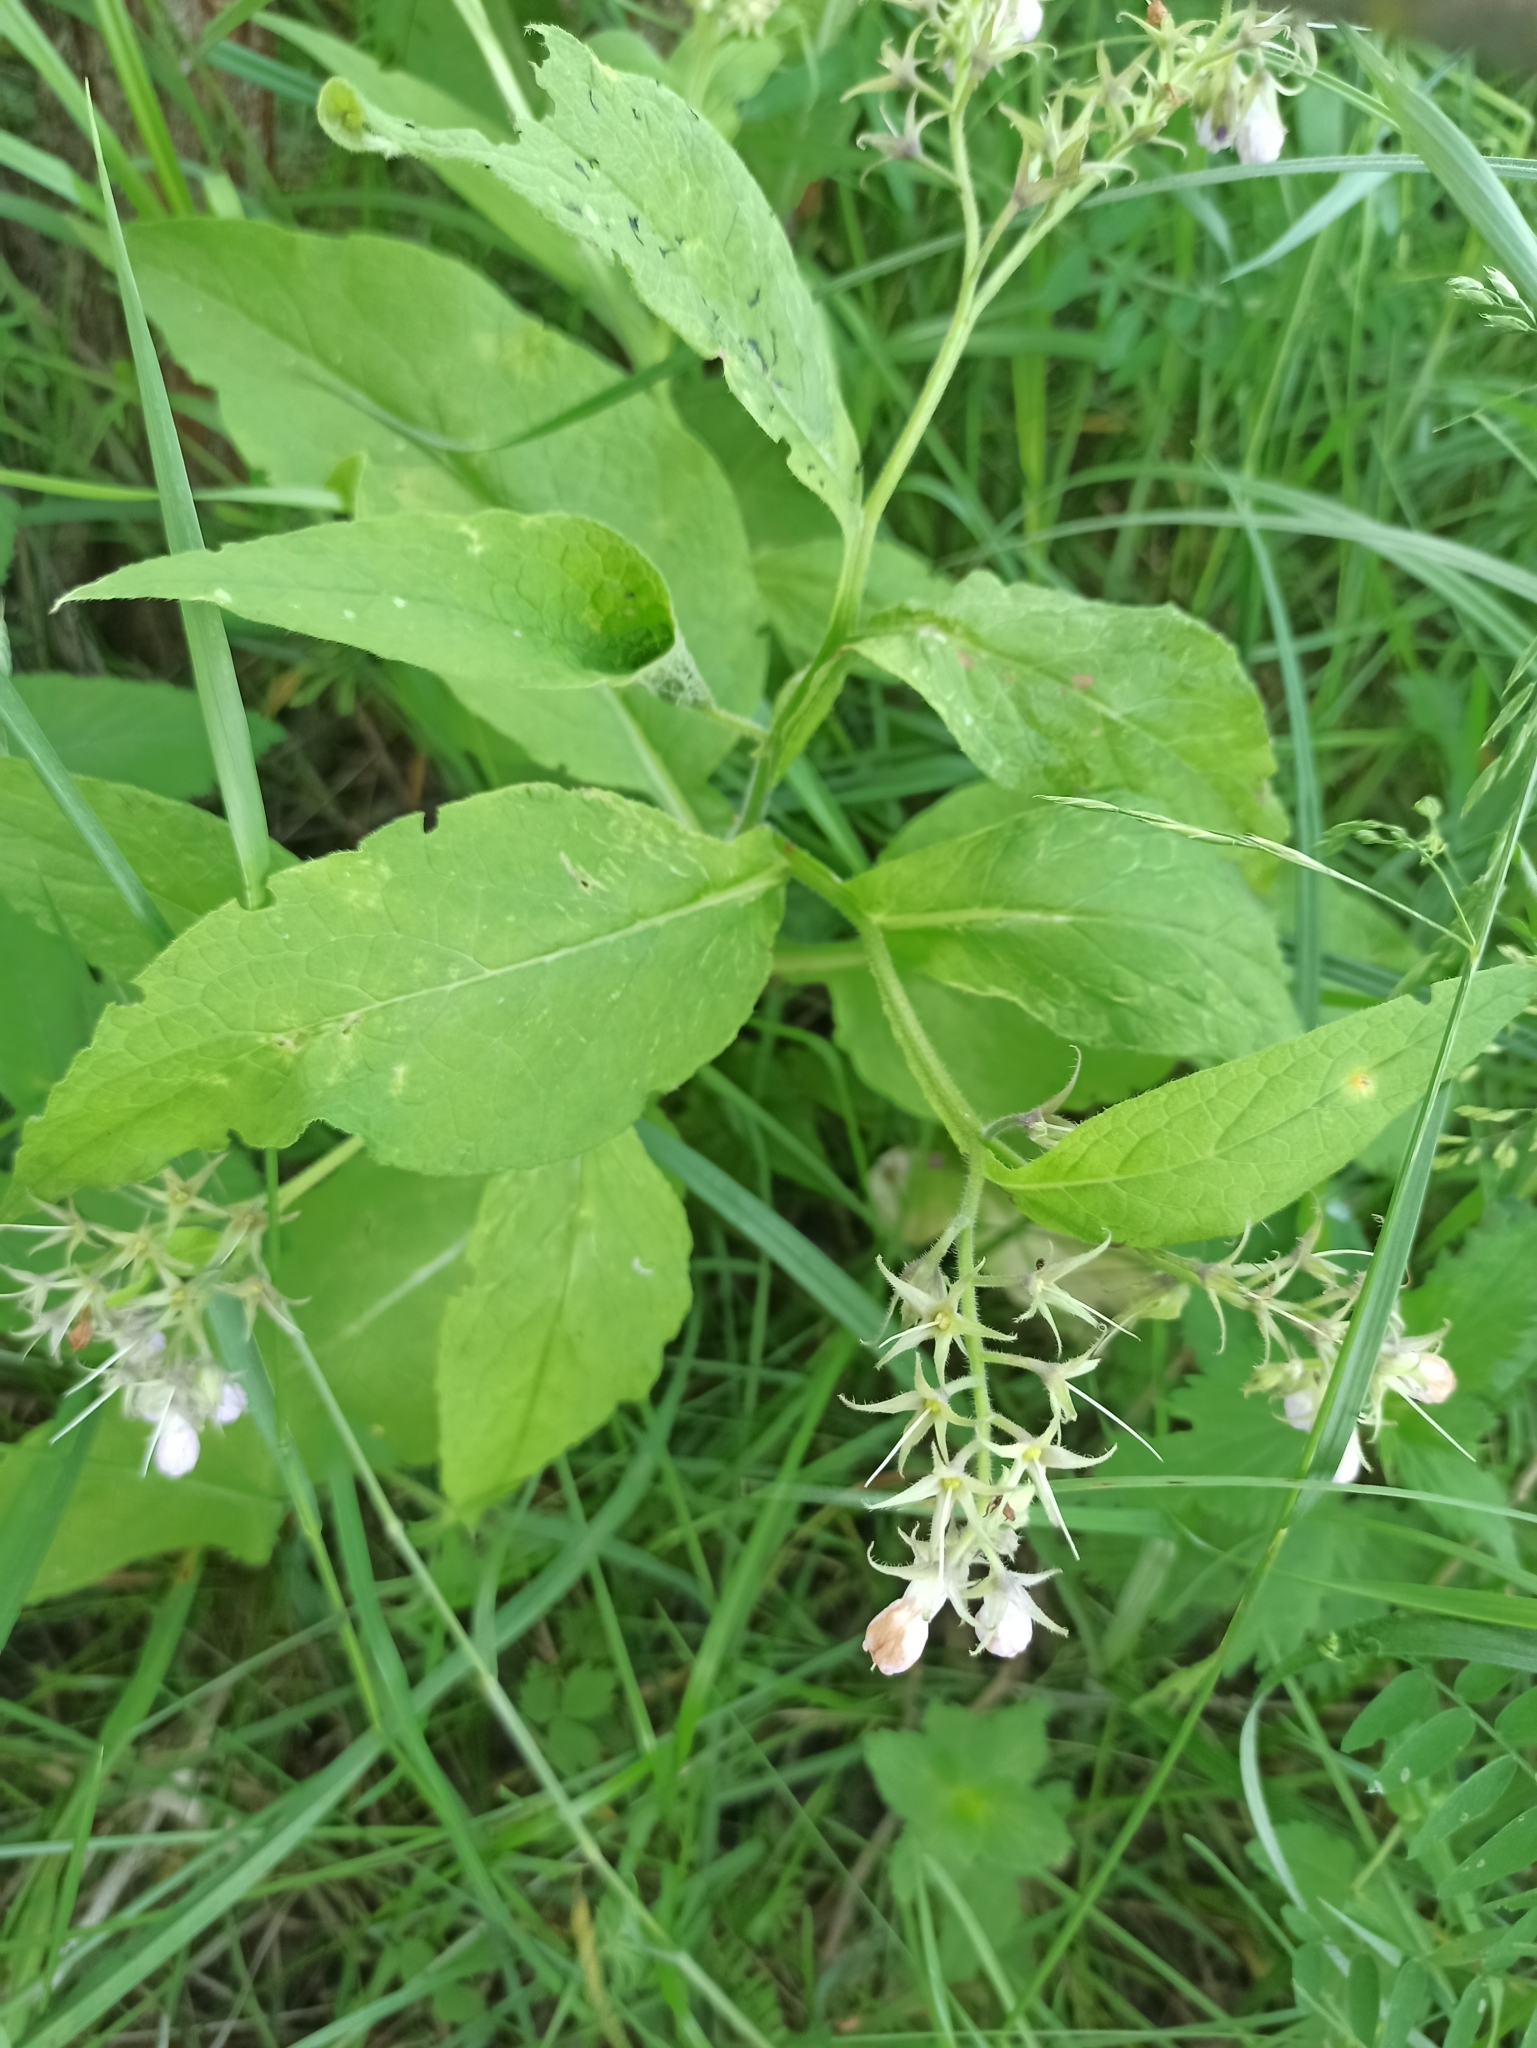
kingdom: Plantae
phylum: Tracheophyta
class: Magnoliopsida
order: Boraginales
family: Boraginaceae
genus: Symphytum
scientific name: Symphytum officinale
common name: Common comfrey
